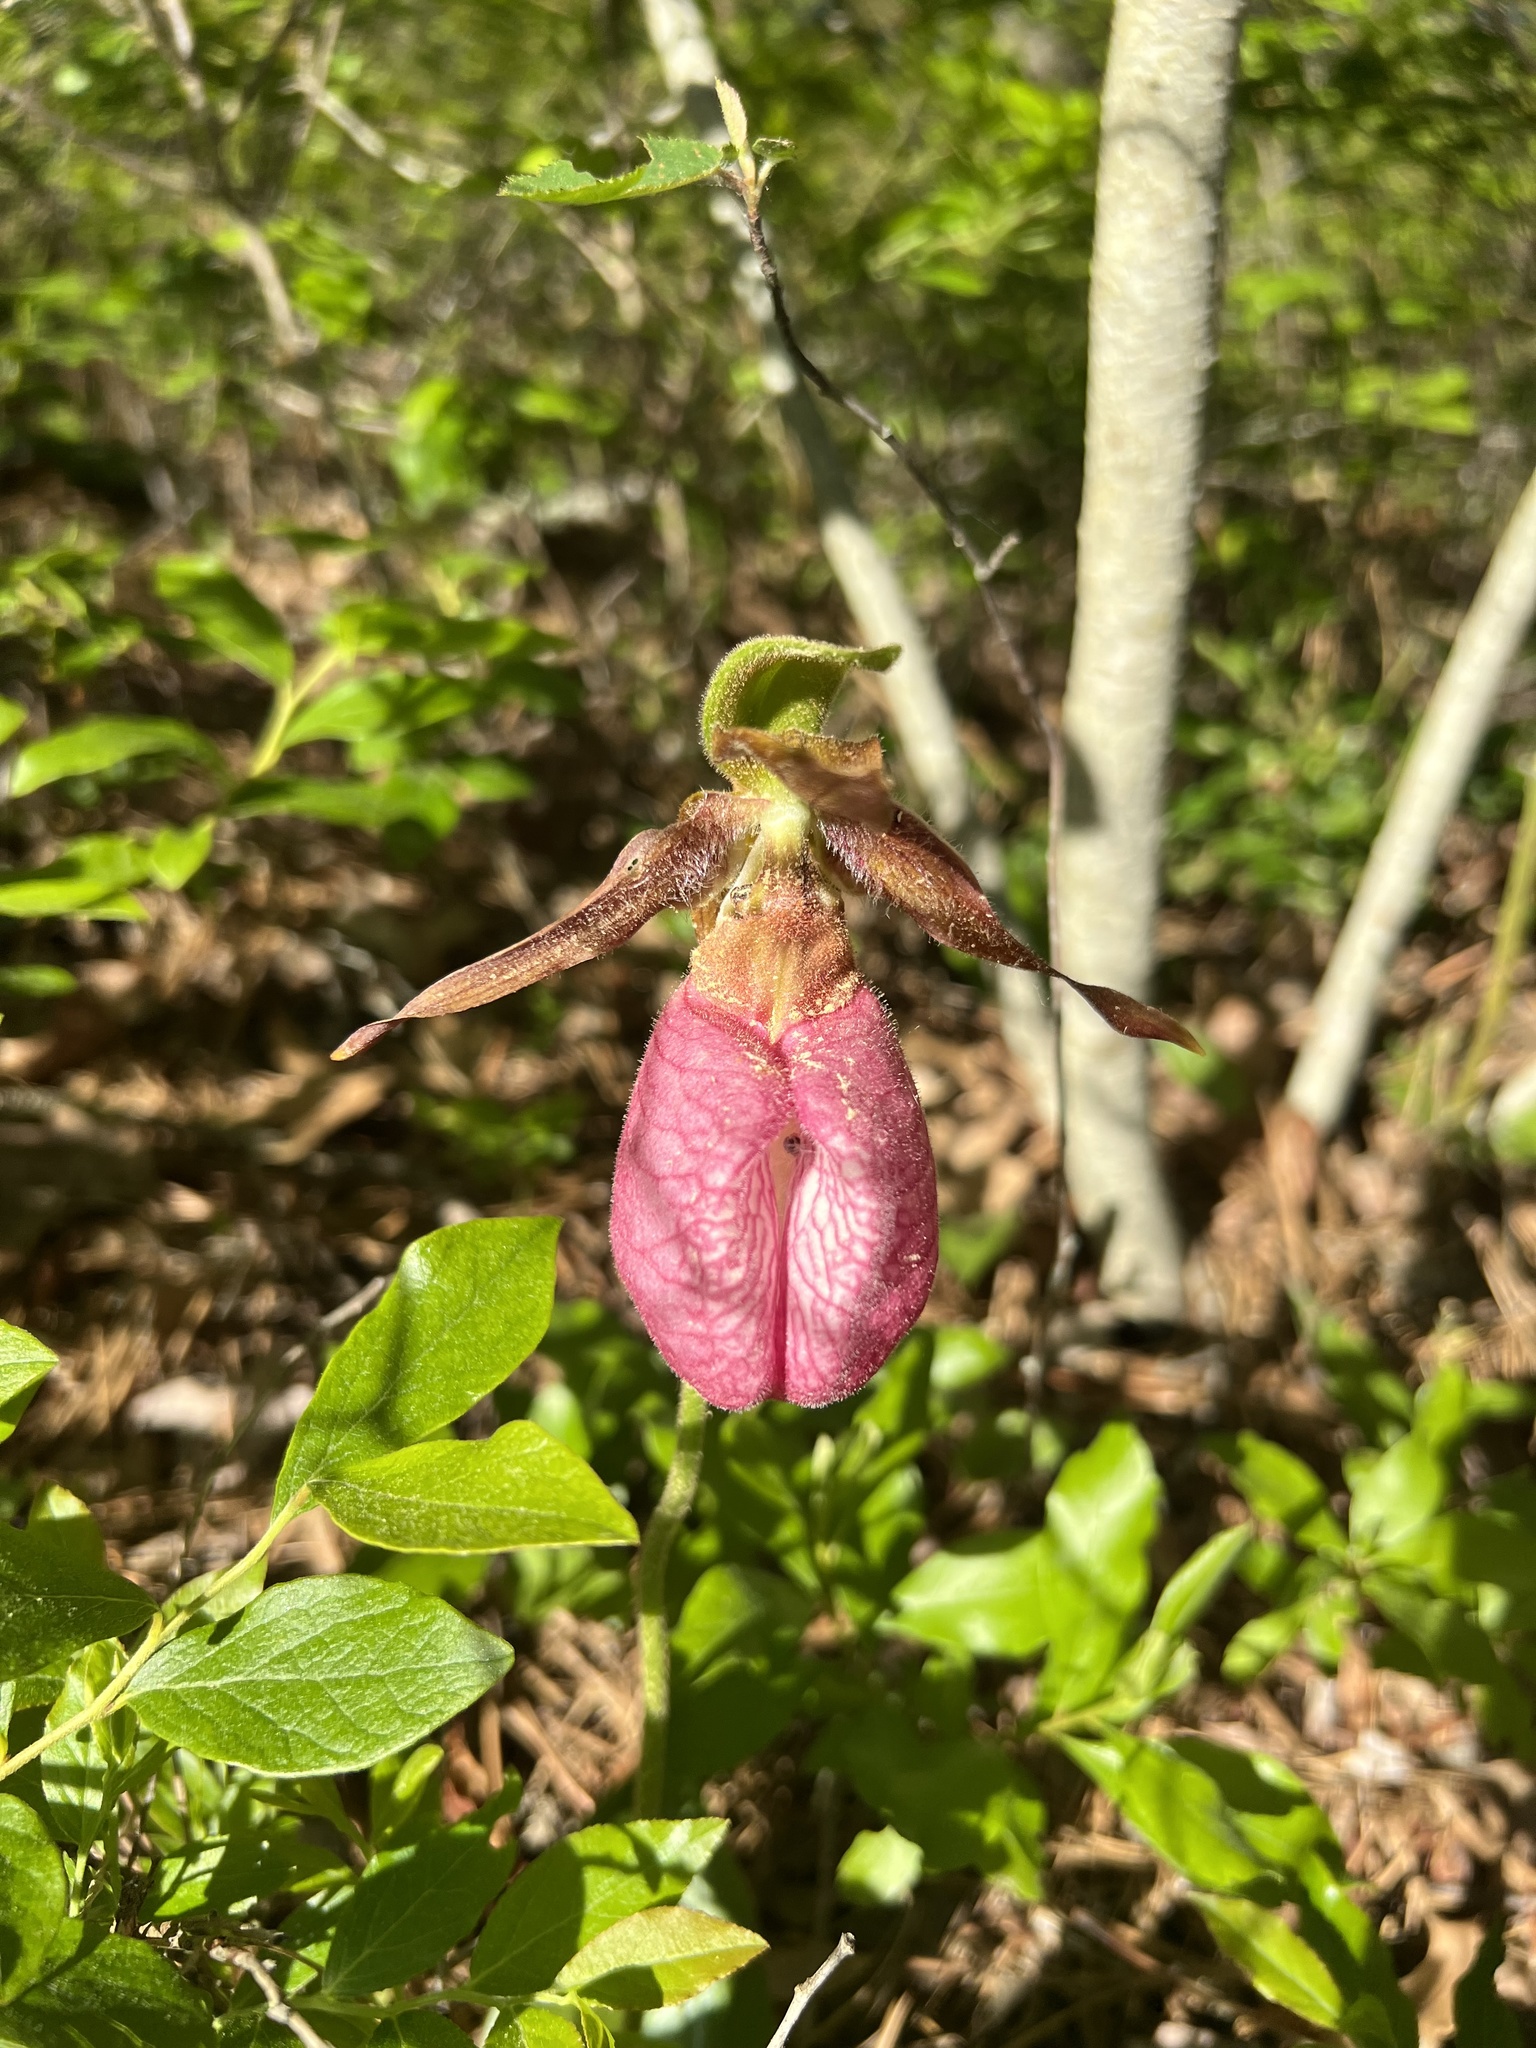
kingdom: Plantae
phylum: Tracheophyta
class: Liliopsida
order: Asparagales
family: Orchidaceae
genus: Cypripedium
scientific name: Cypripedium acaule
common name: Pink lady's-slipper
